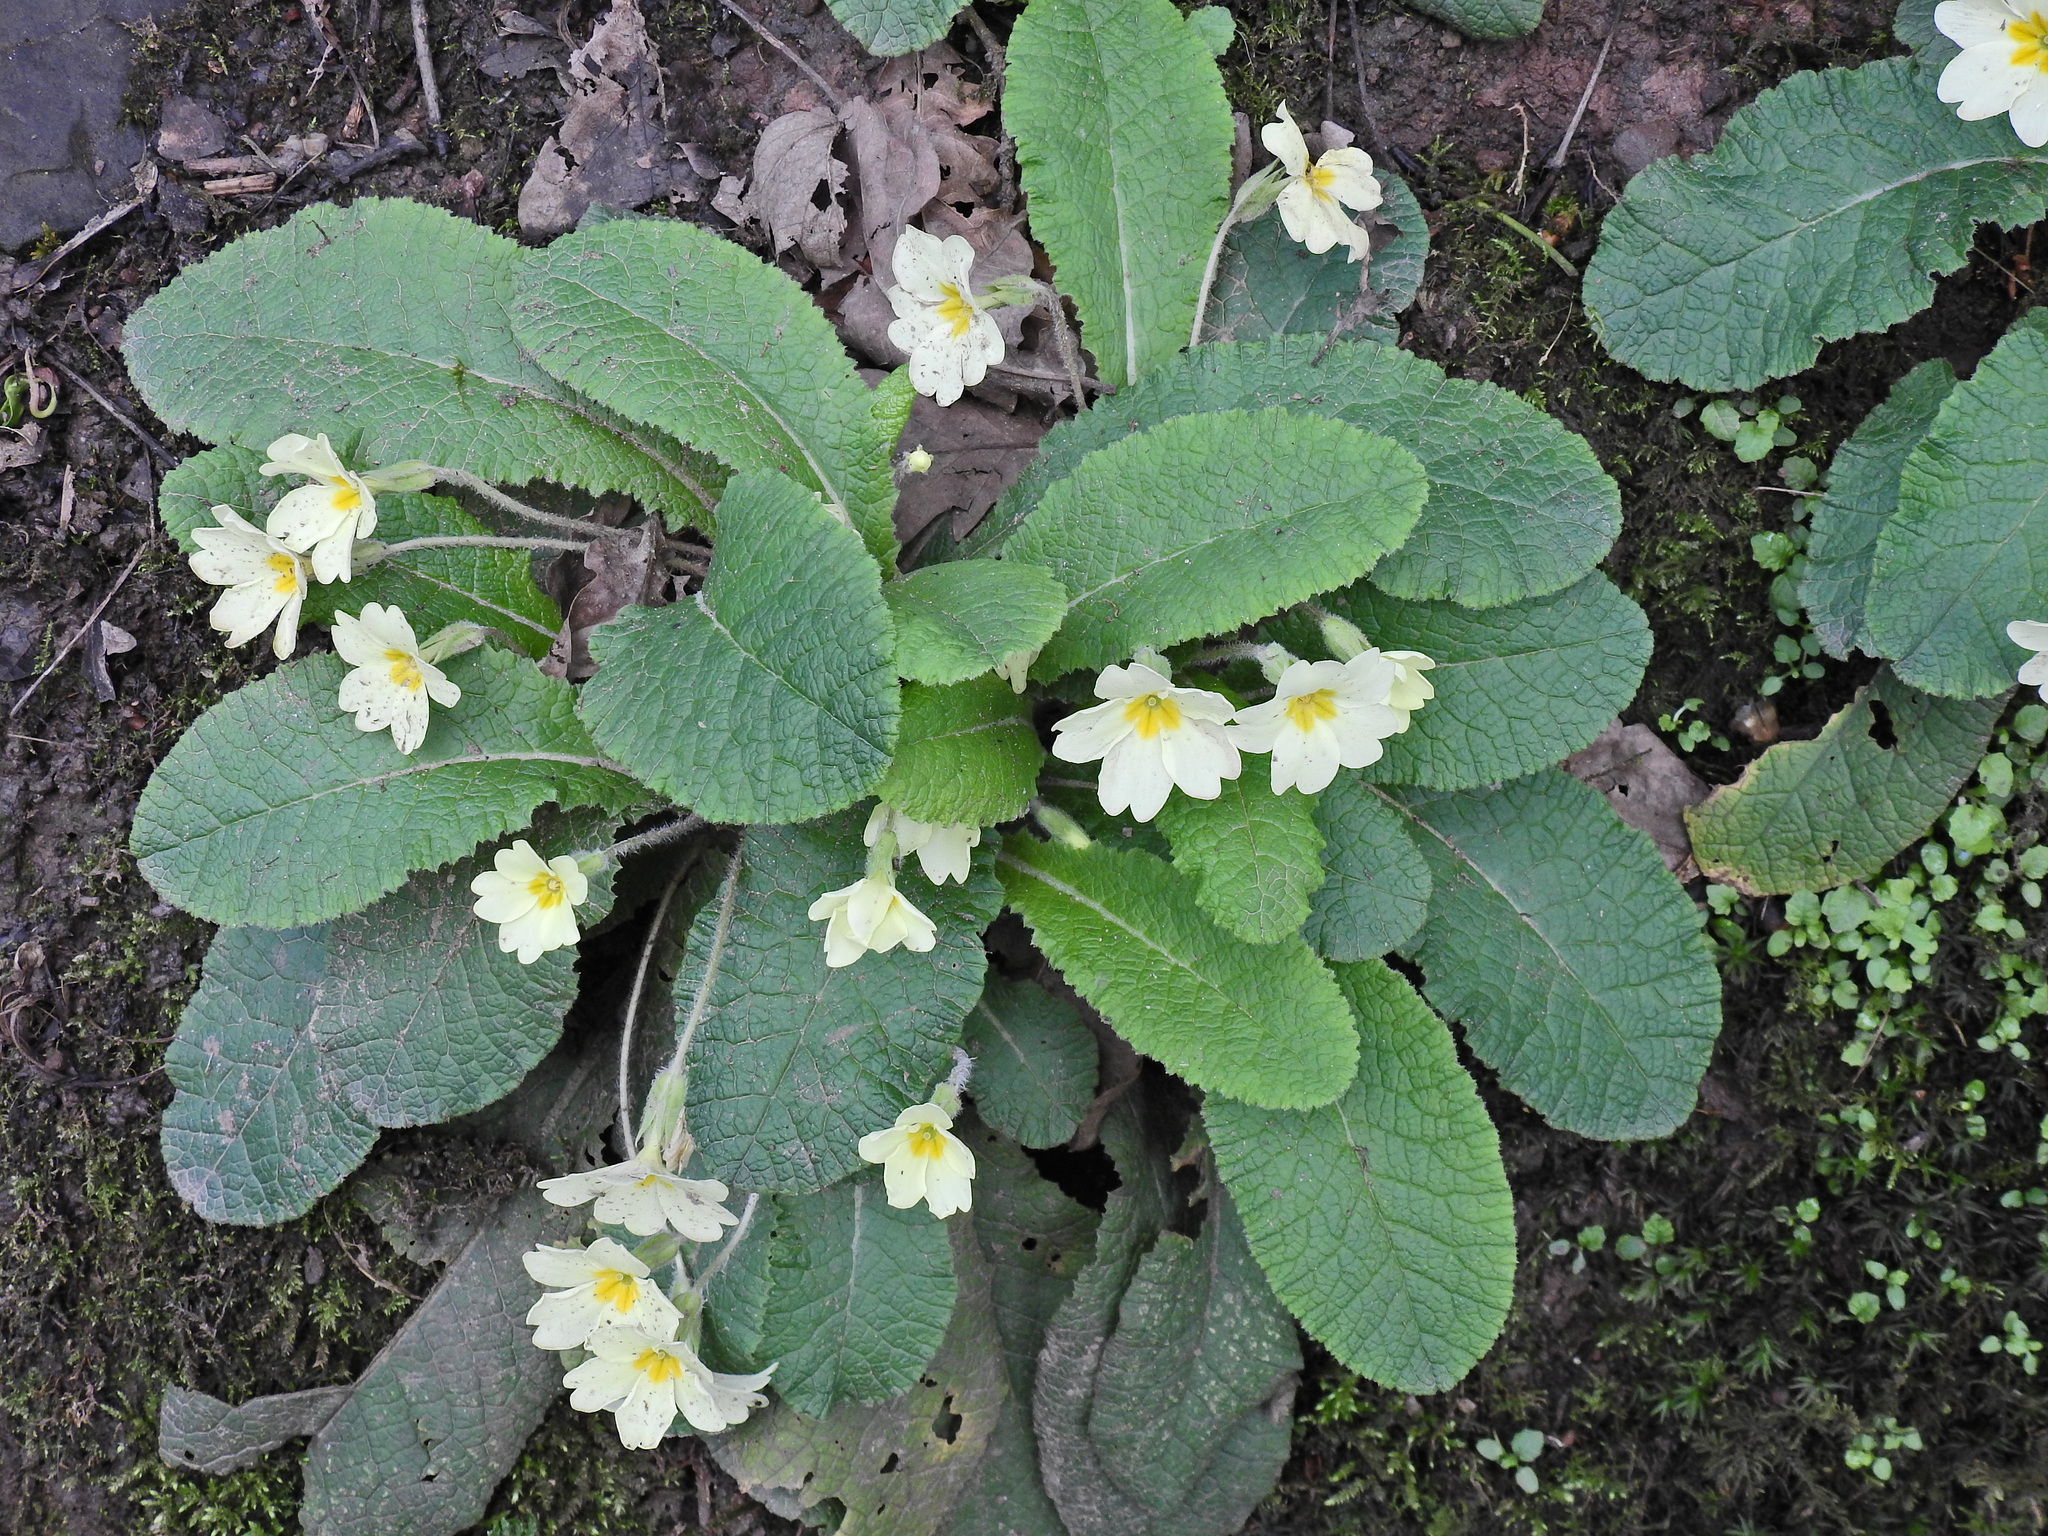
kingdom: Plantae
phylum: Tracheophyta
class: Magnoliopsida
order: Ericales
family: Primulaceae
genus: Primula
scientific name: Primula vulgaris
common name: Primrose
